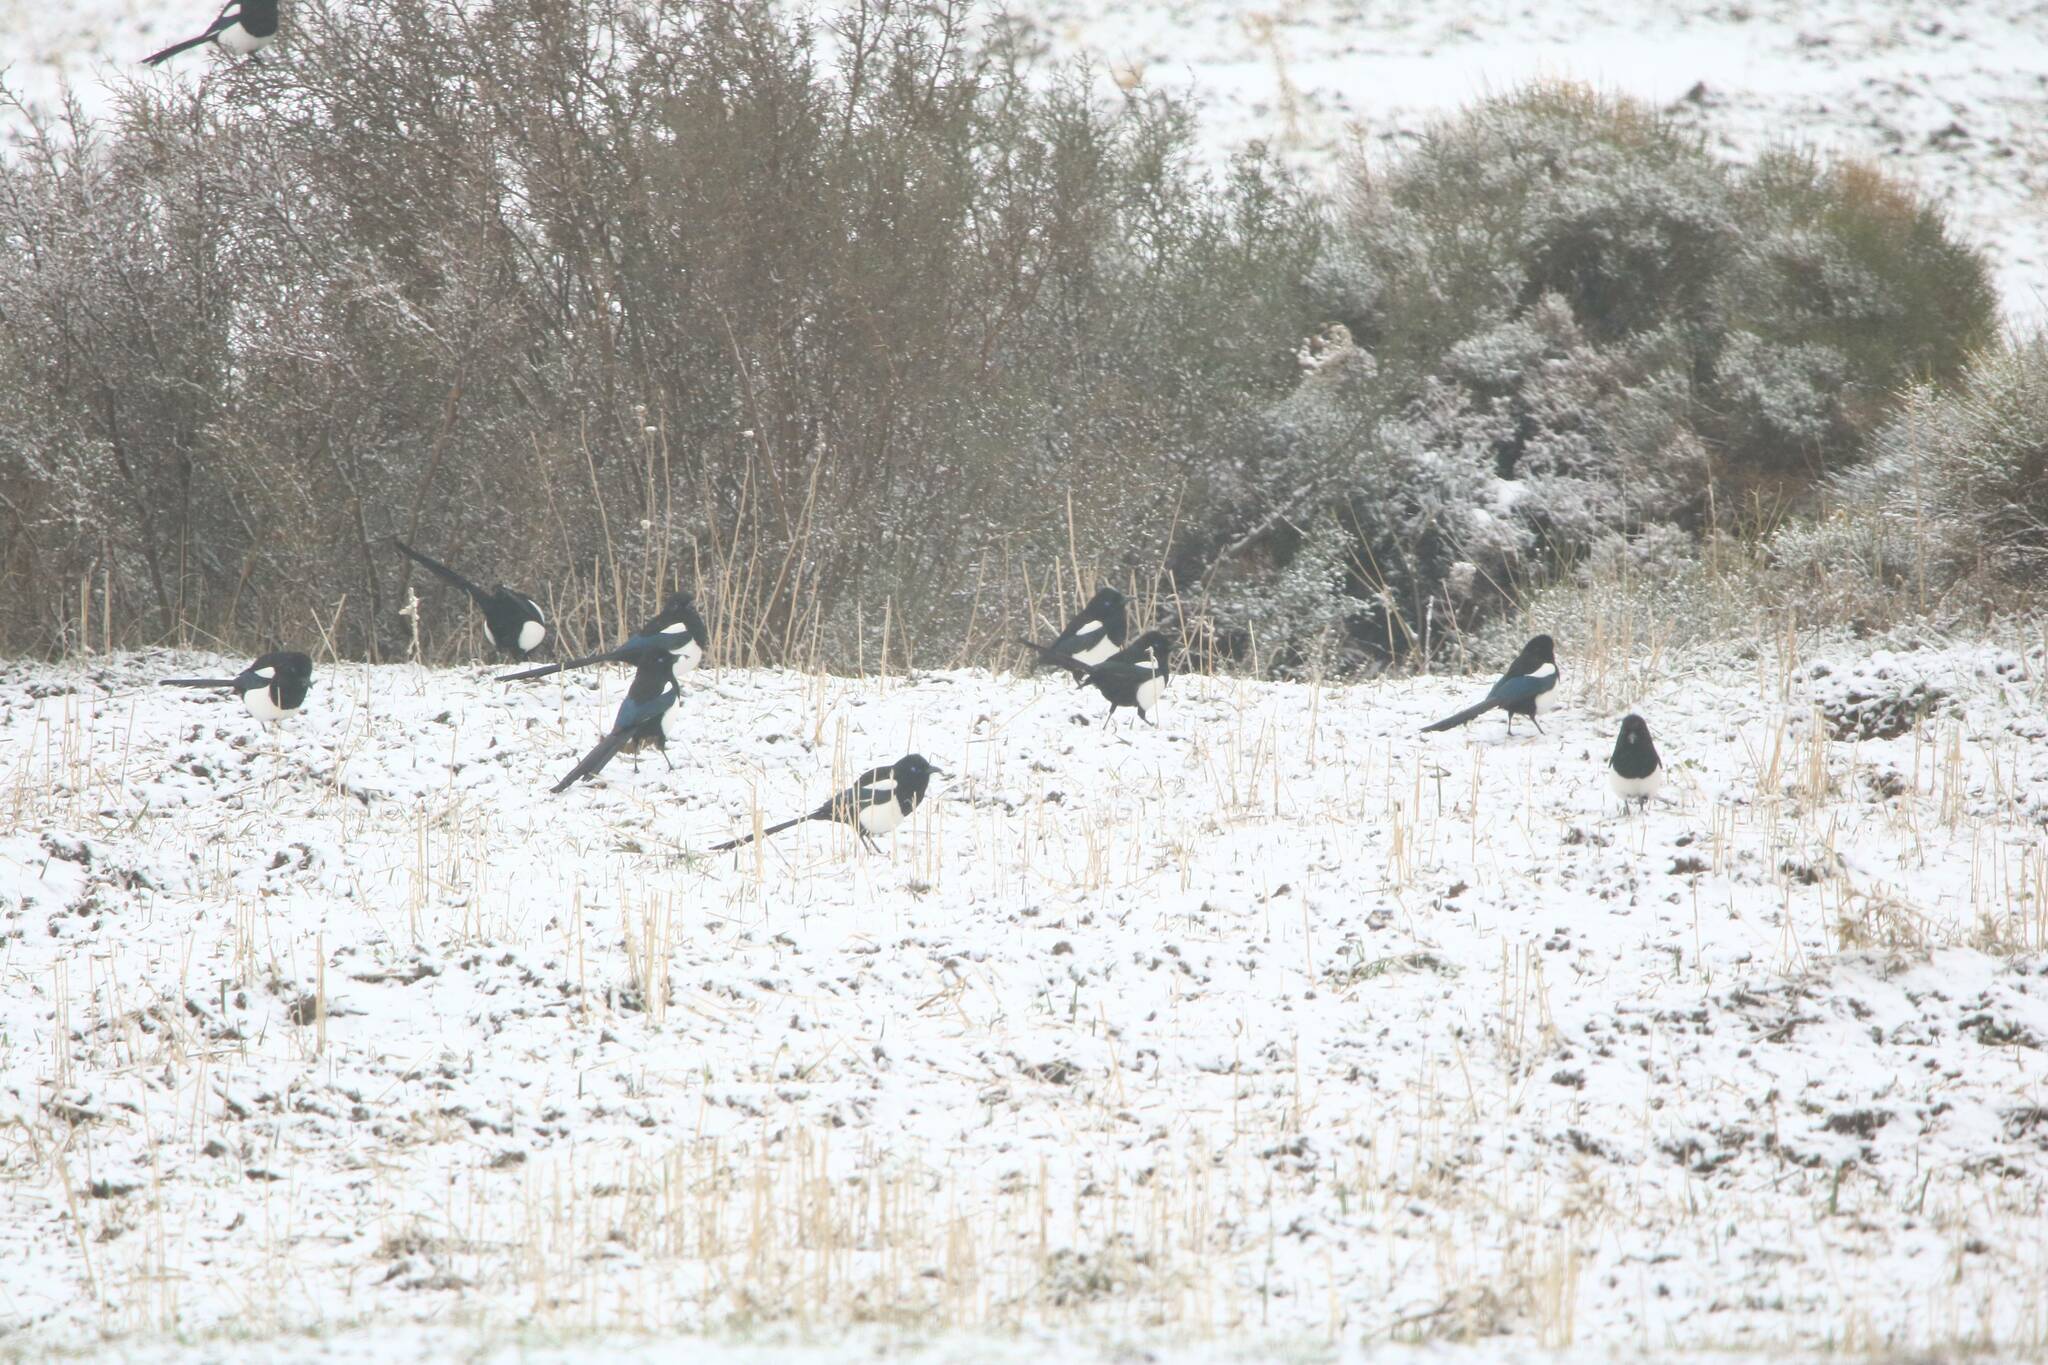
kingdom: Animalia
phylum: Chordata
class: Aves
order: Passeriformes
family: Corvidae
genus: Pica
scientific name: Pica mauritanica
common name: Maghreb magpie
